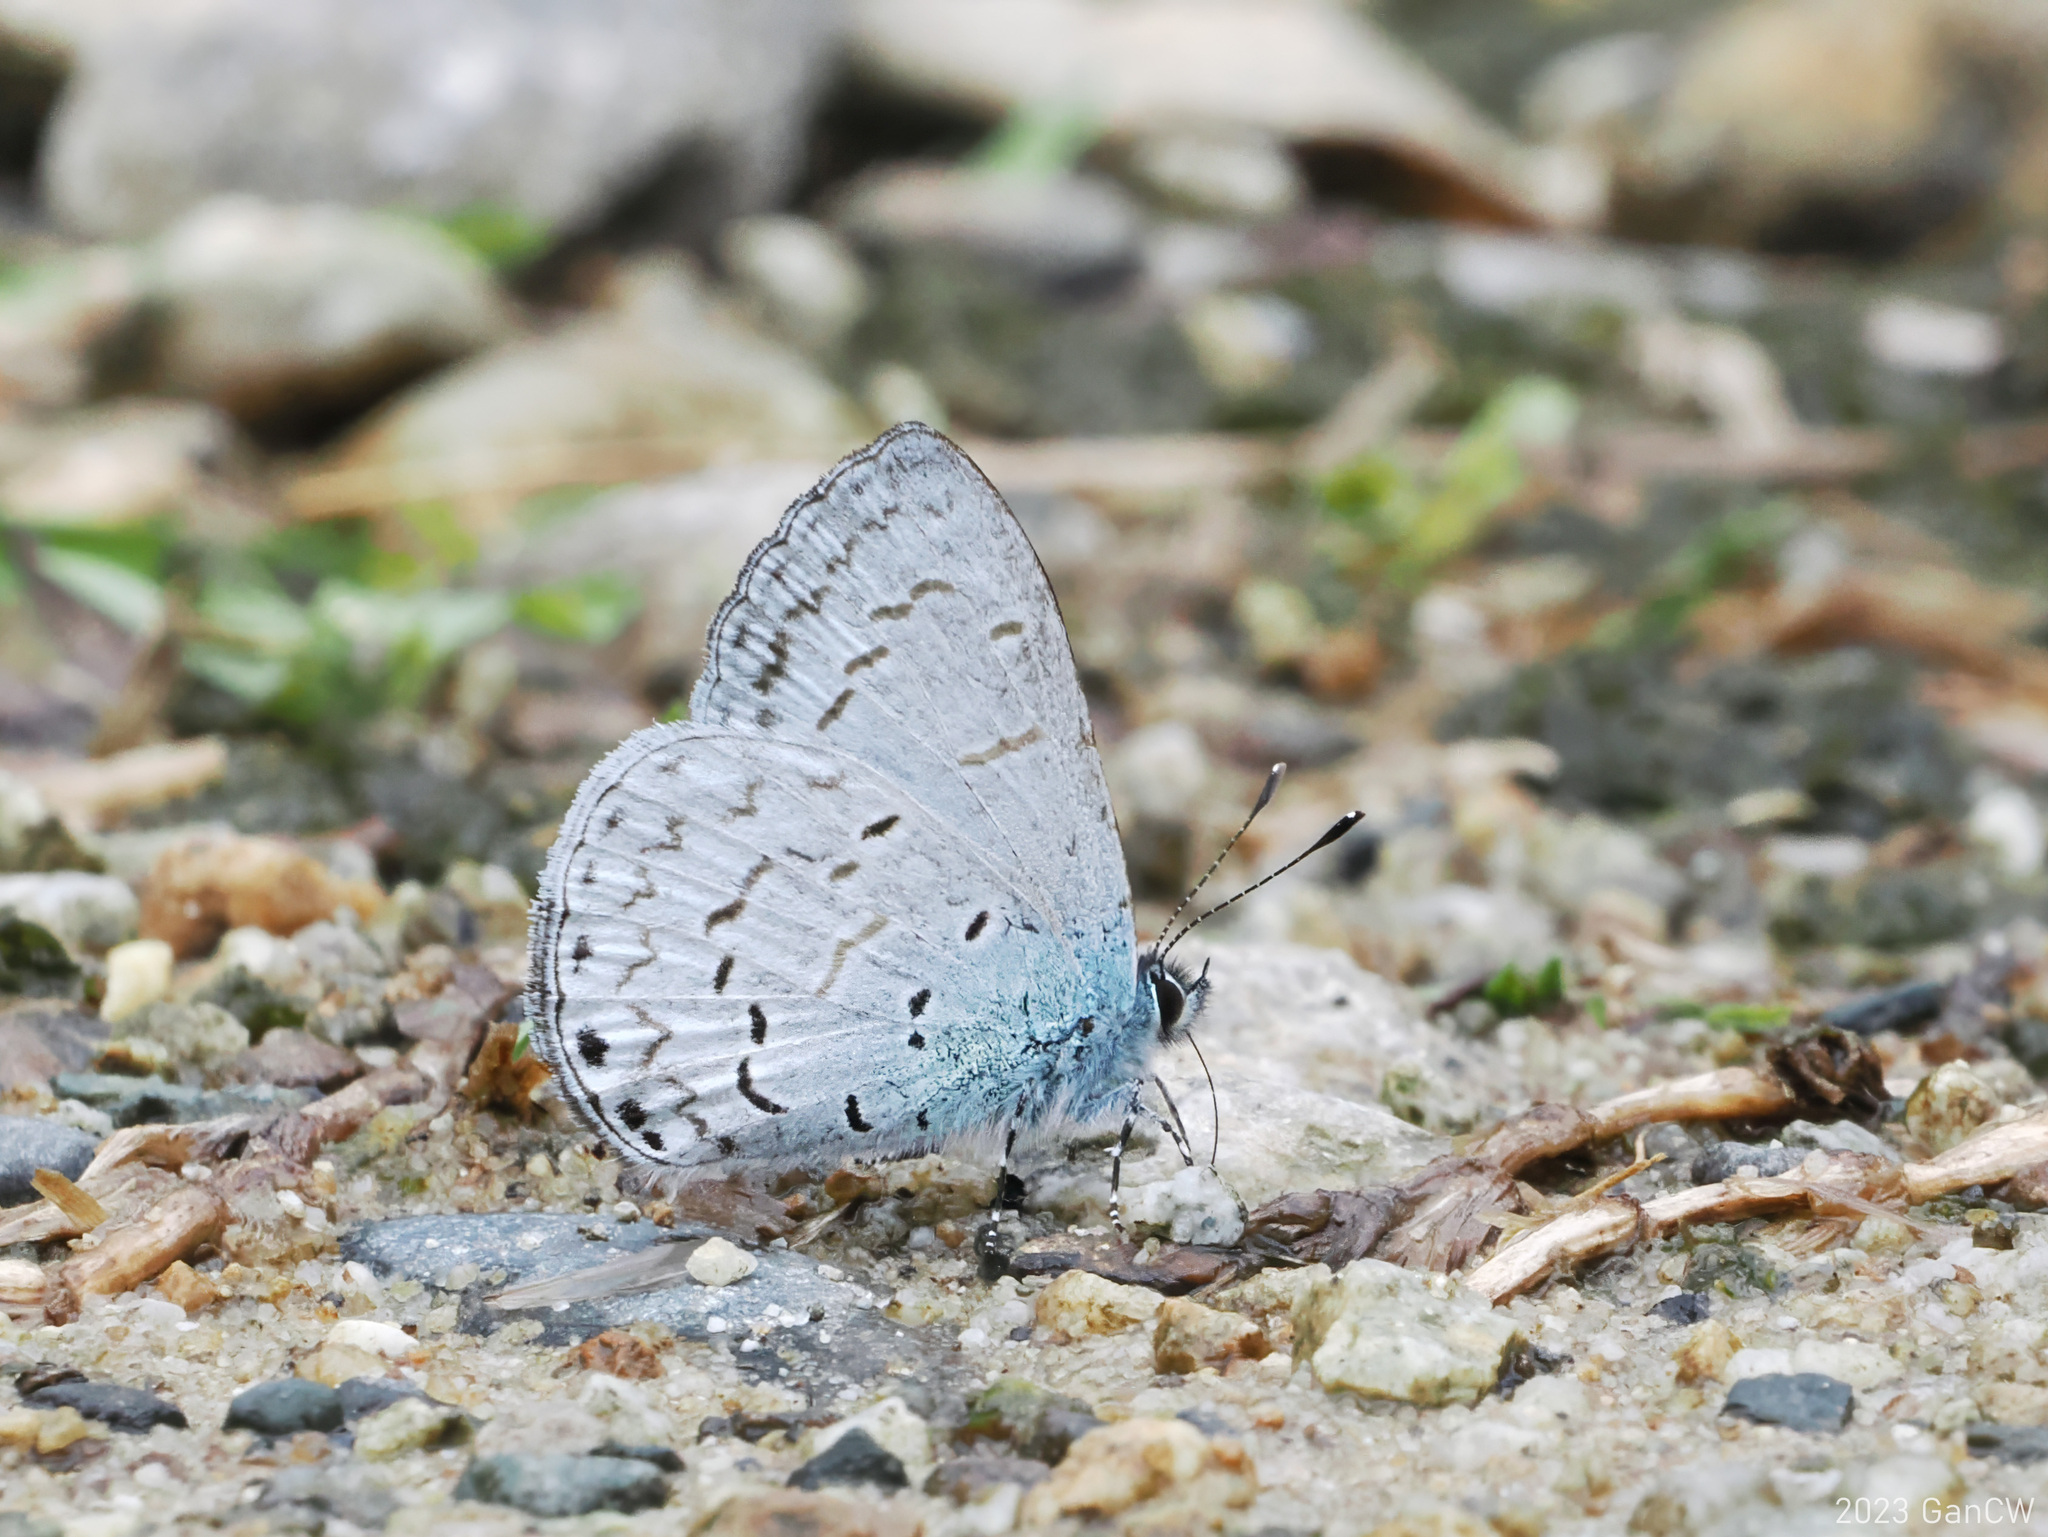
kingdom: Animalia
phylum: Arthropoda
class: Insecta
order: Lepidoptera
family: Lycaenidae
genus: Lycaenopsis
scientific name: Lycaenopsis tsukadai
